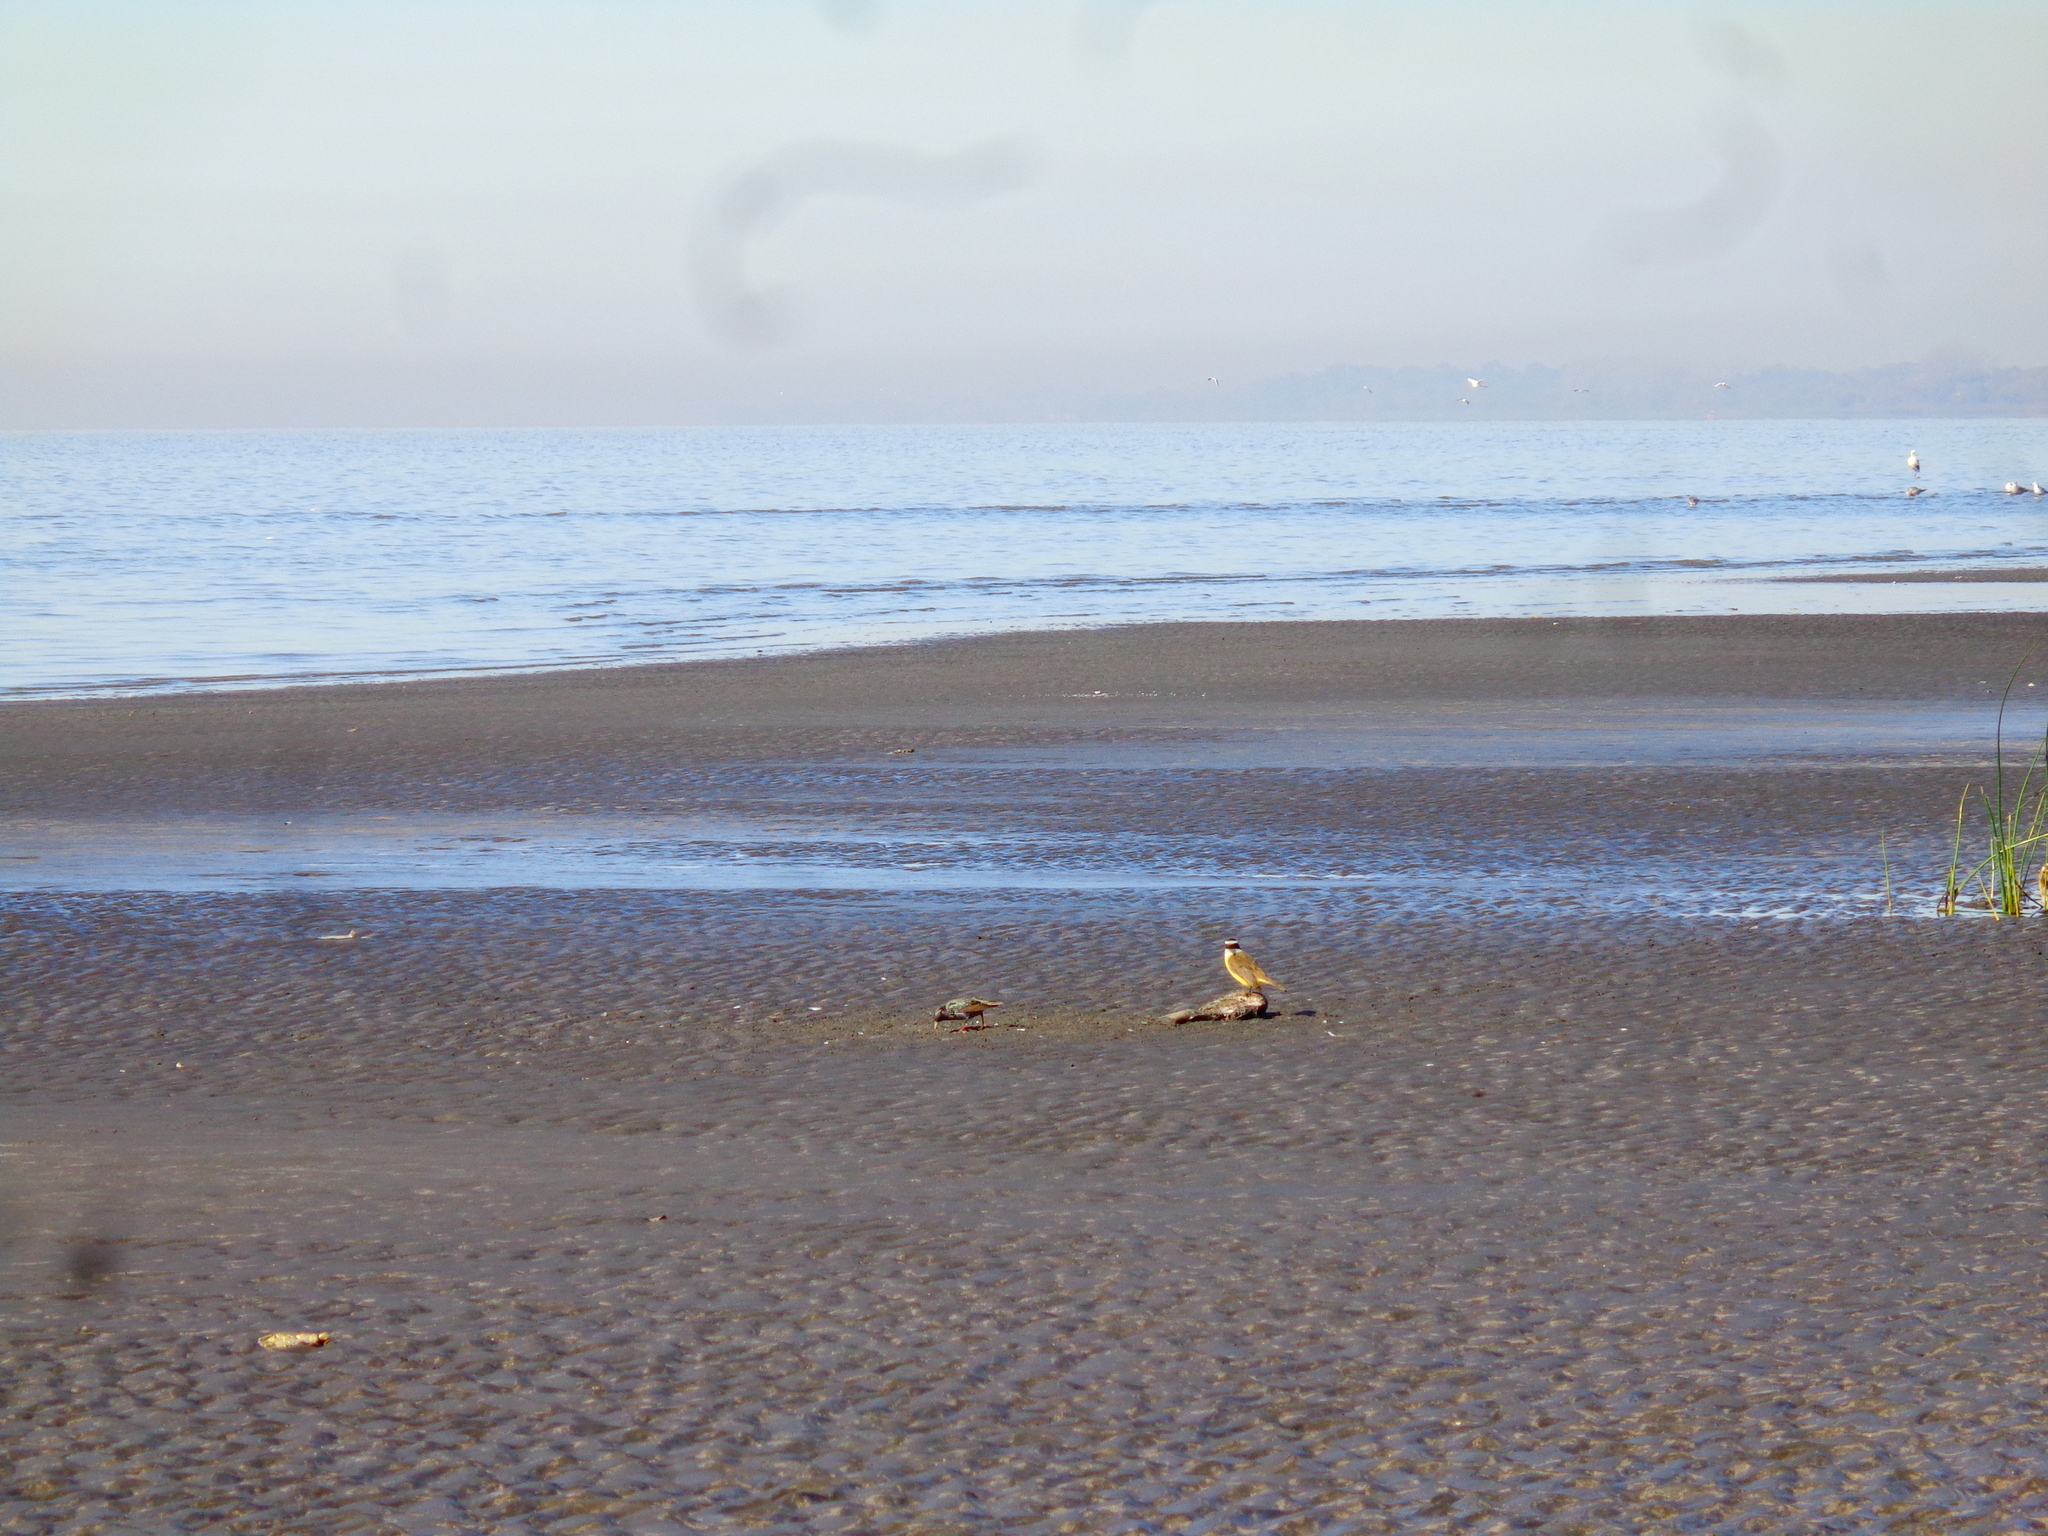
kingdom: Animalia
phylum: Chordata
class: Aves
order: Passeriformes
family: Sturnidae
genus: Sturnus
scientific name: Sturnus vulgaris
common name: Common starling
